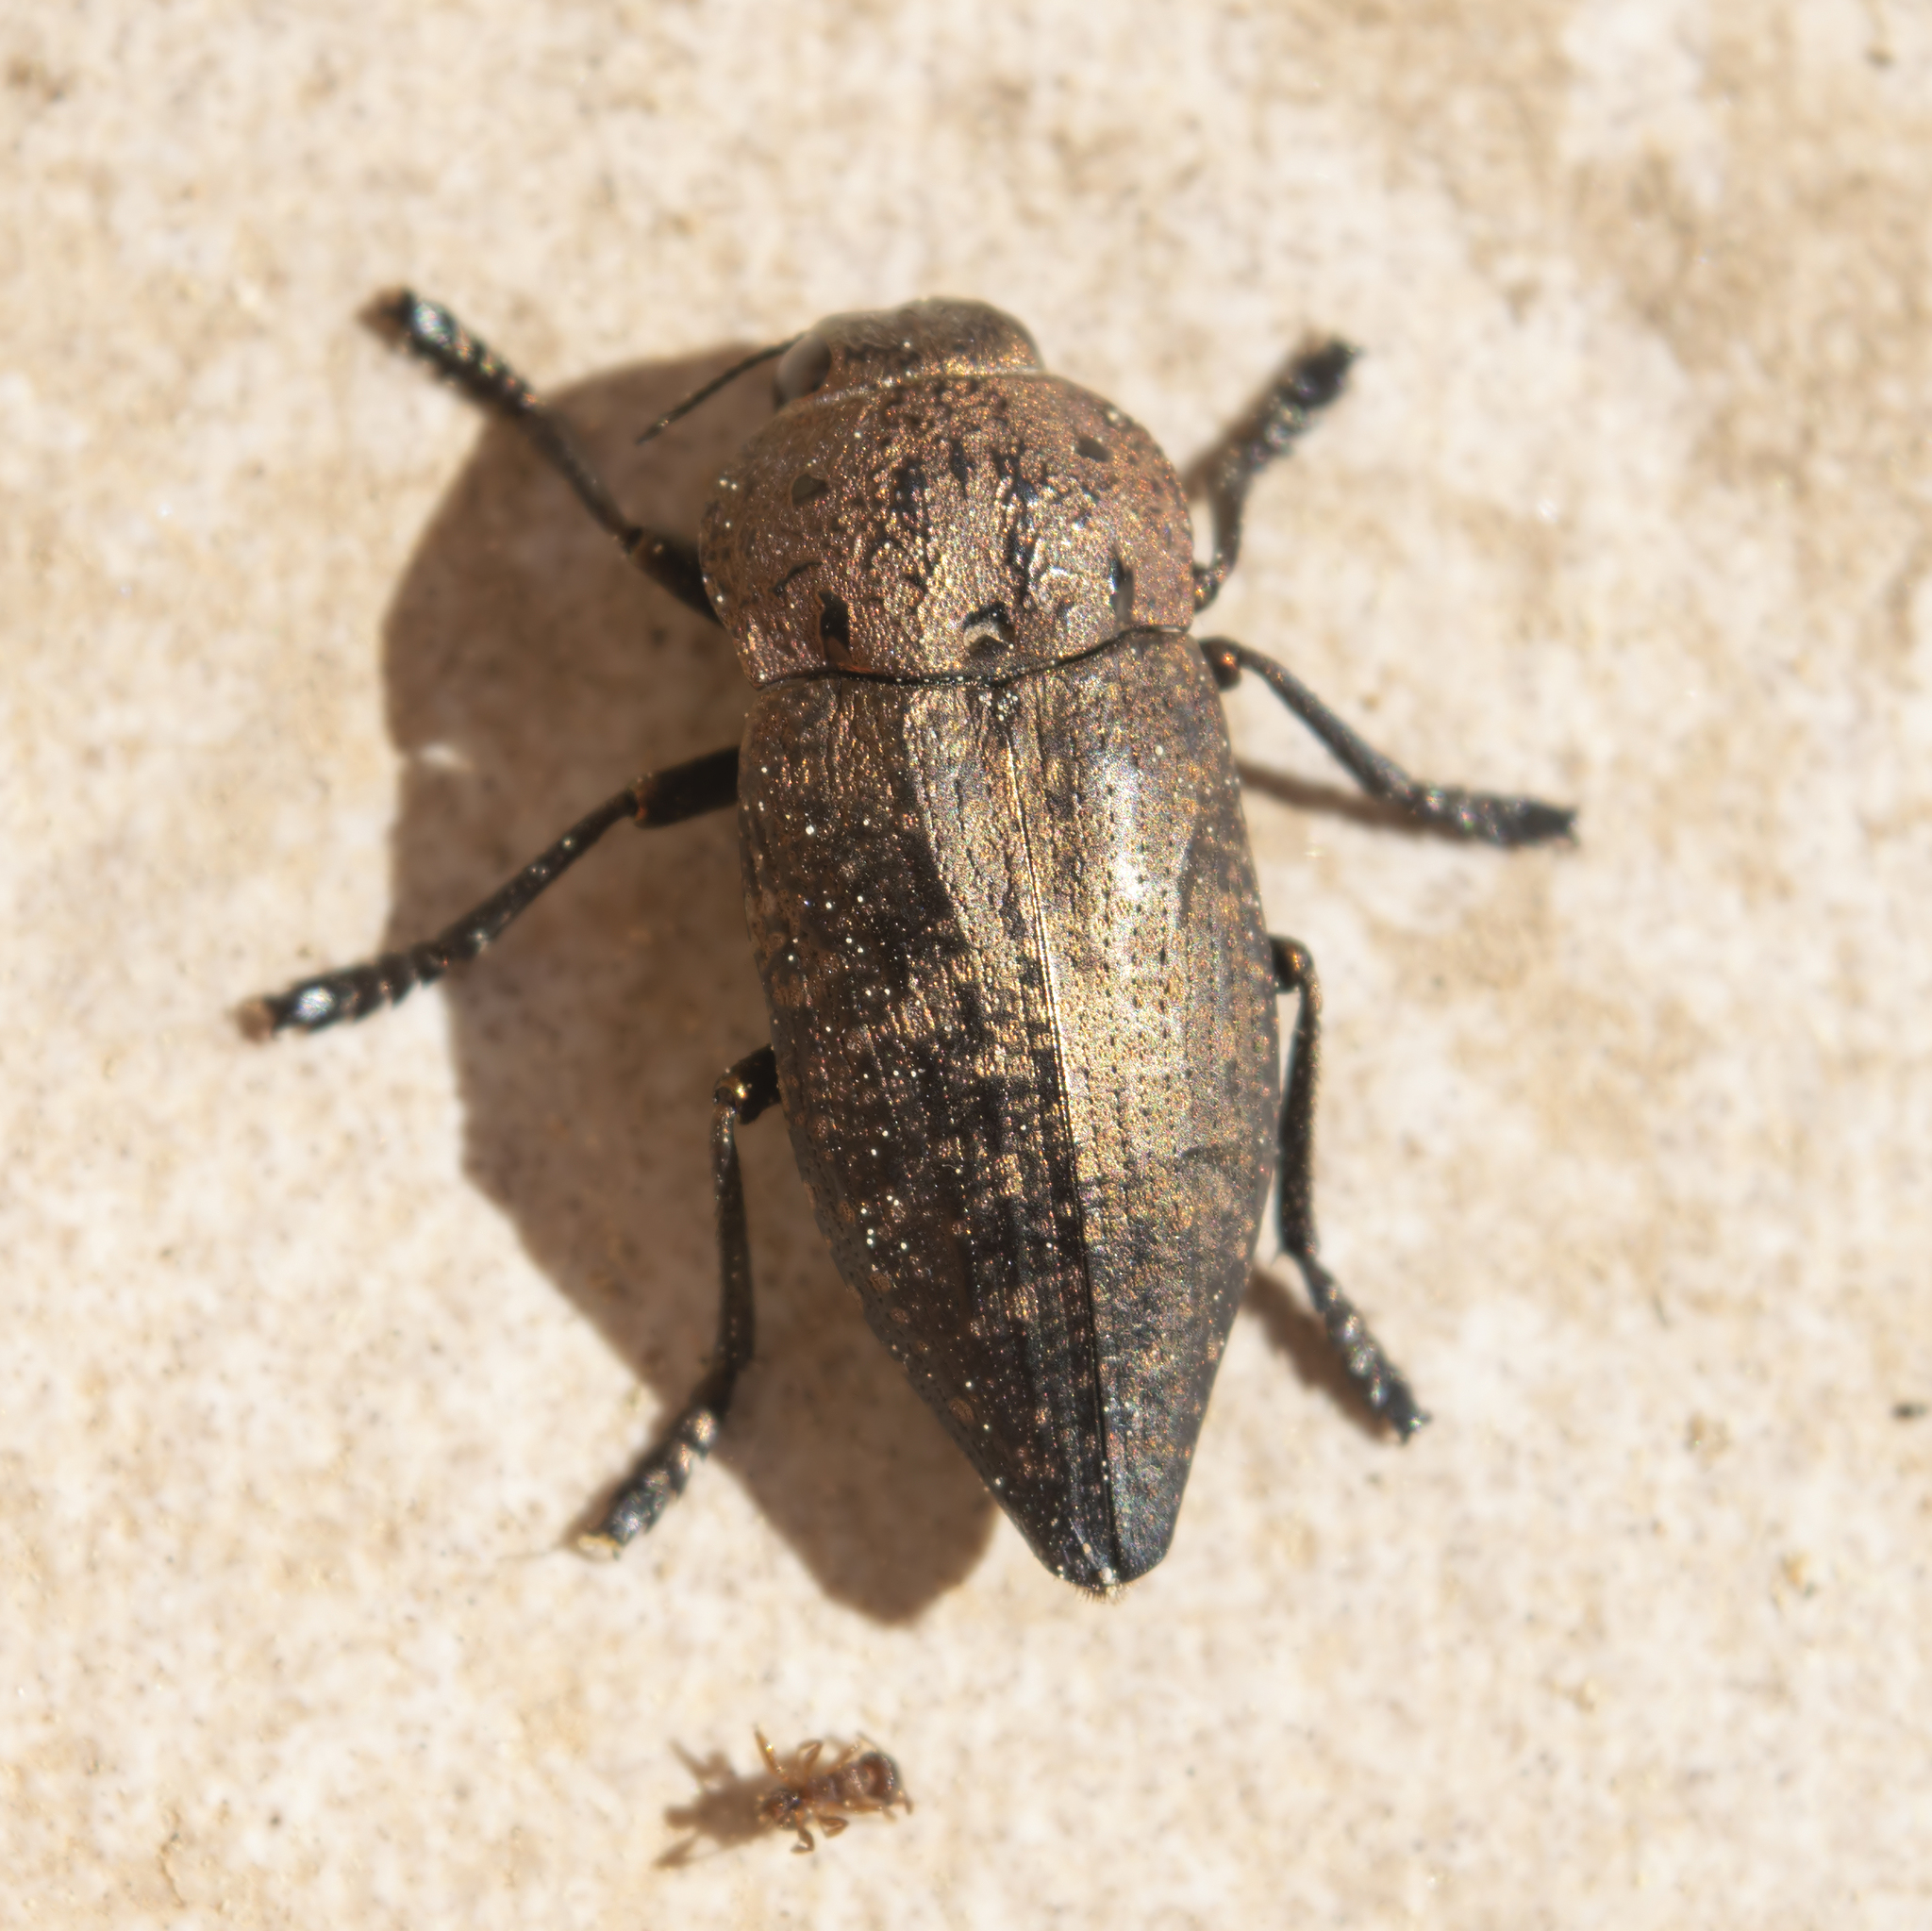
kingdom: Animalia
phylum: Arthropoda
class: Insecta
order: Coleoptera
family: Buprestidae
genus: Capnodis
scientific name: Capnodis tenebricosa
